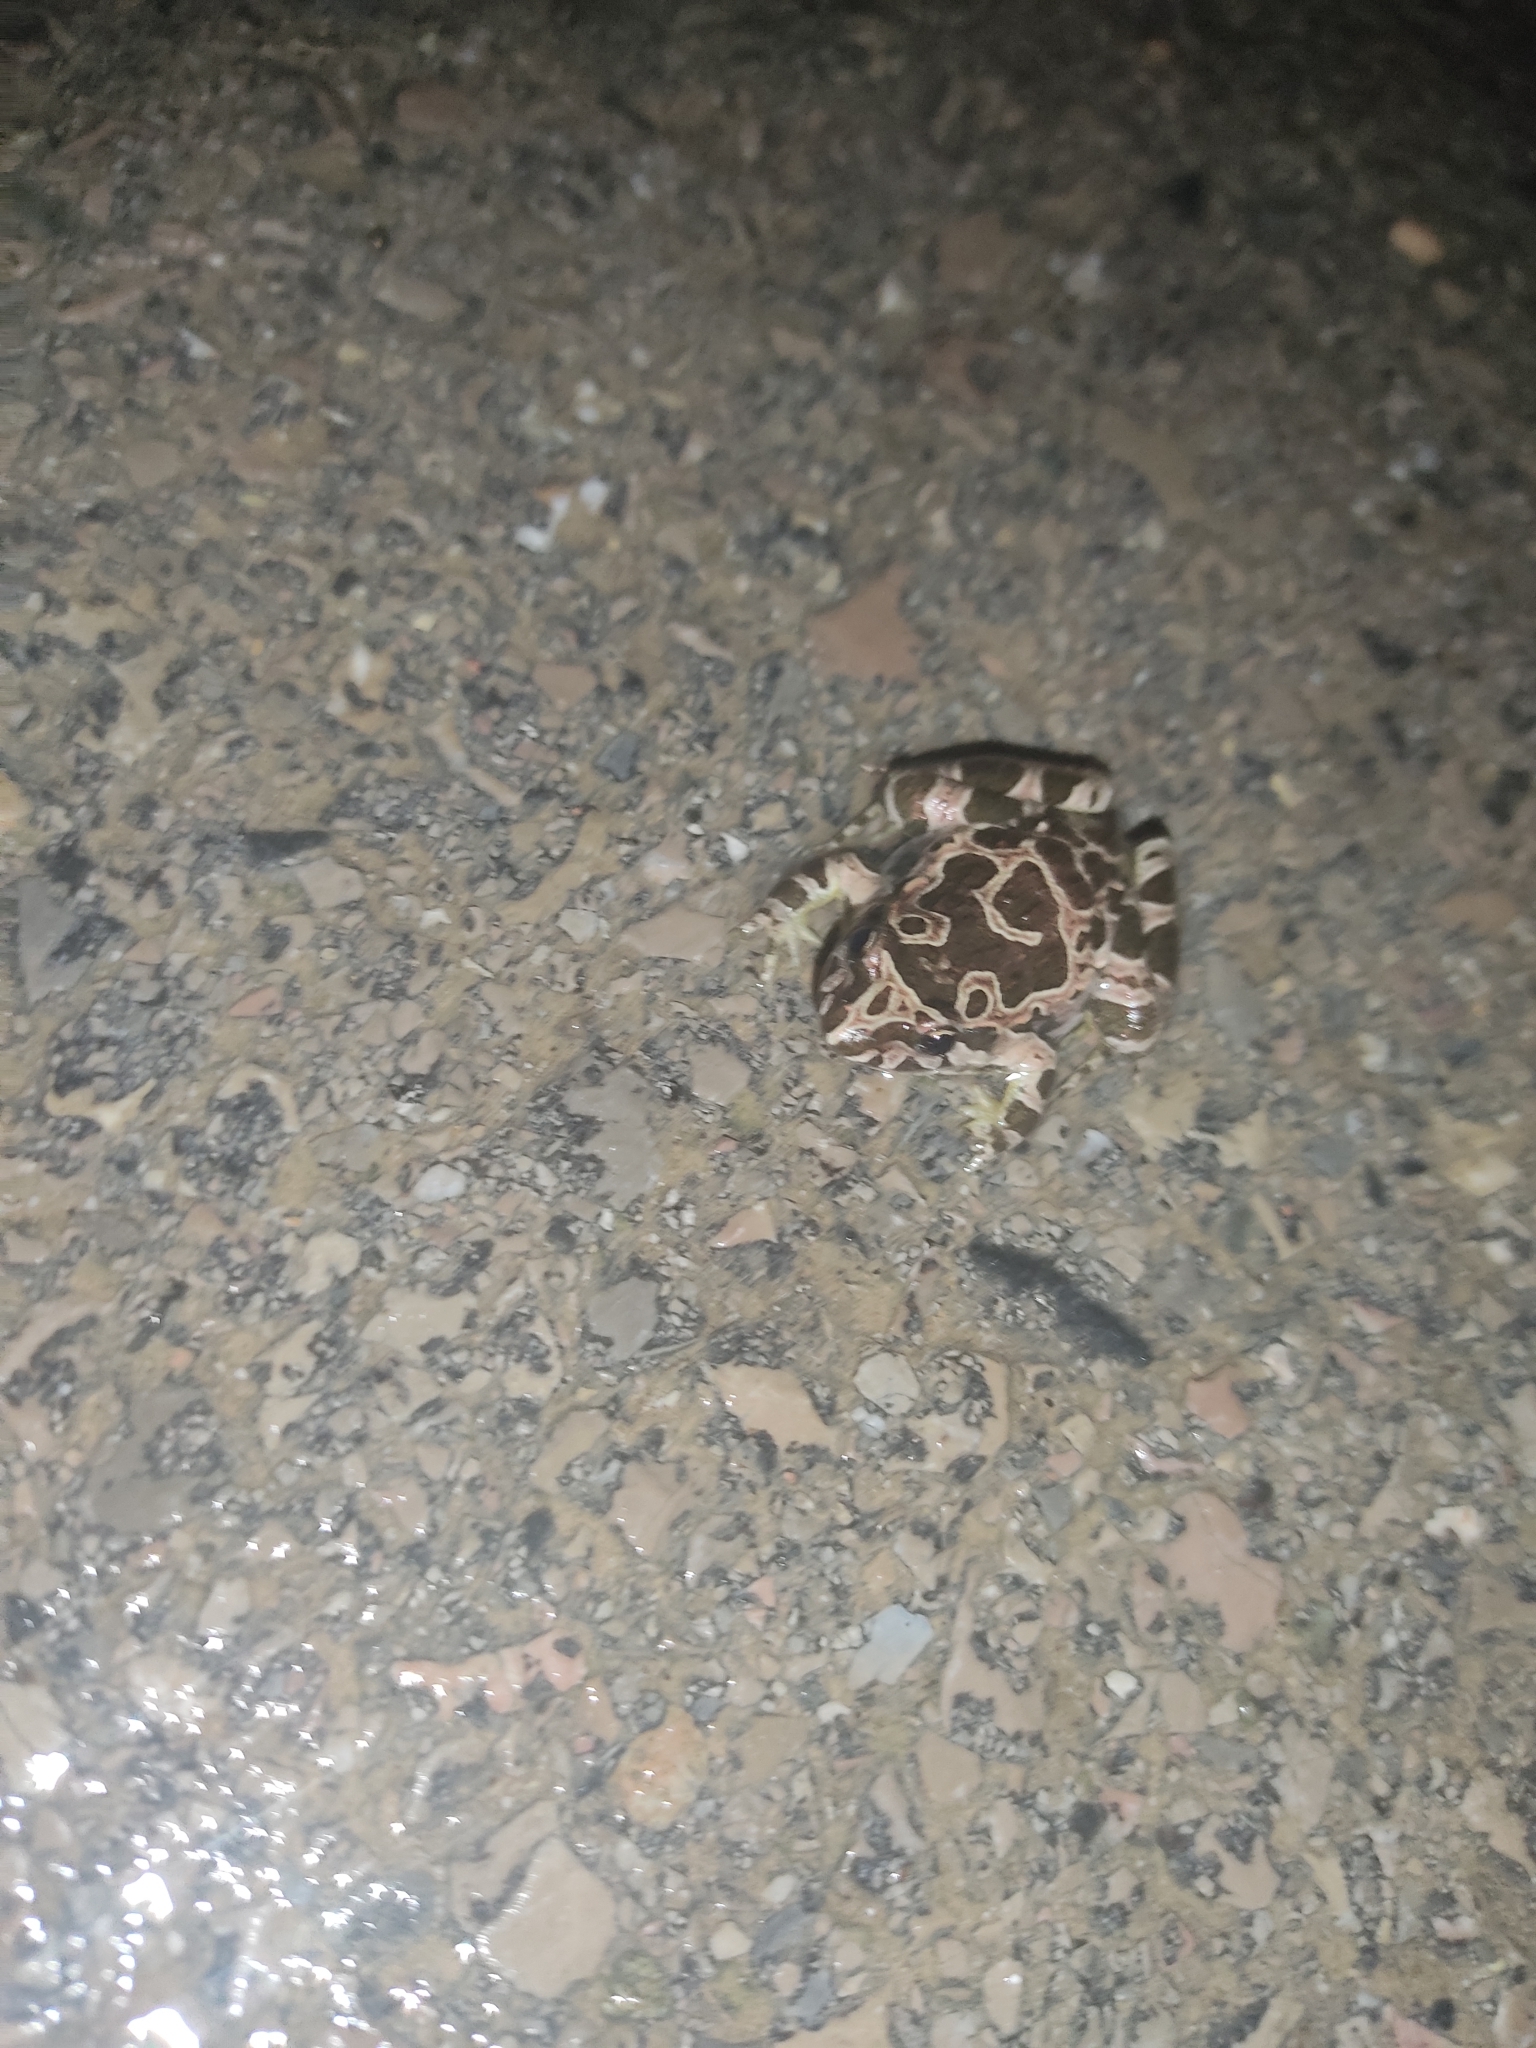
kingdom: Animalia
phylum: Chordata
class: Amphibia
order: Anura
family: Alytidae
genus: Discoglossus
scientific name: Discoglossus pictus
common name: Painted frog
